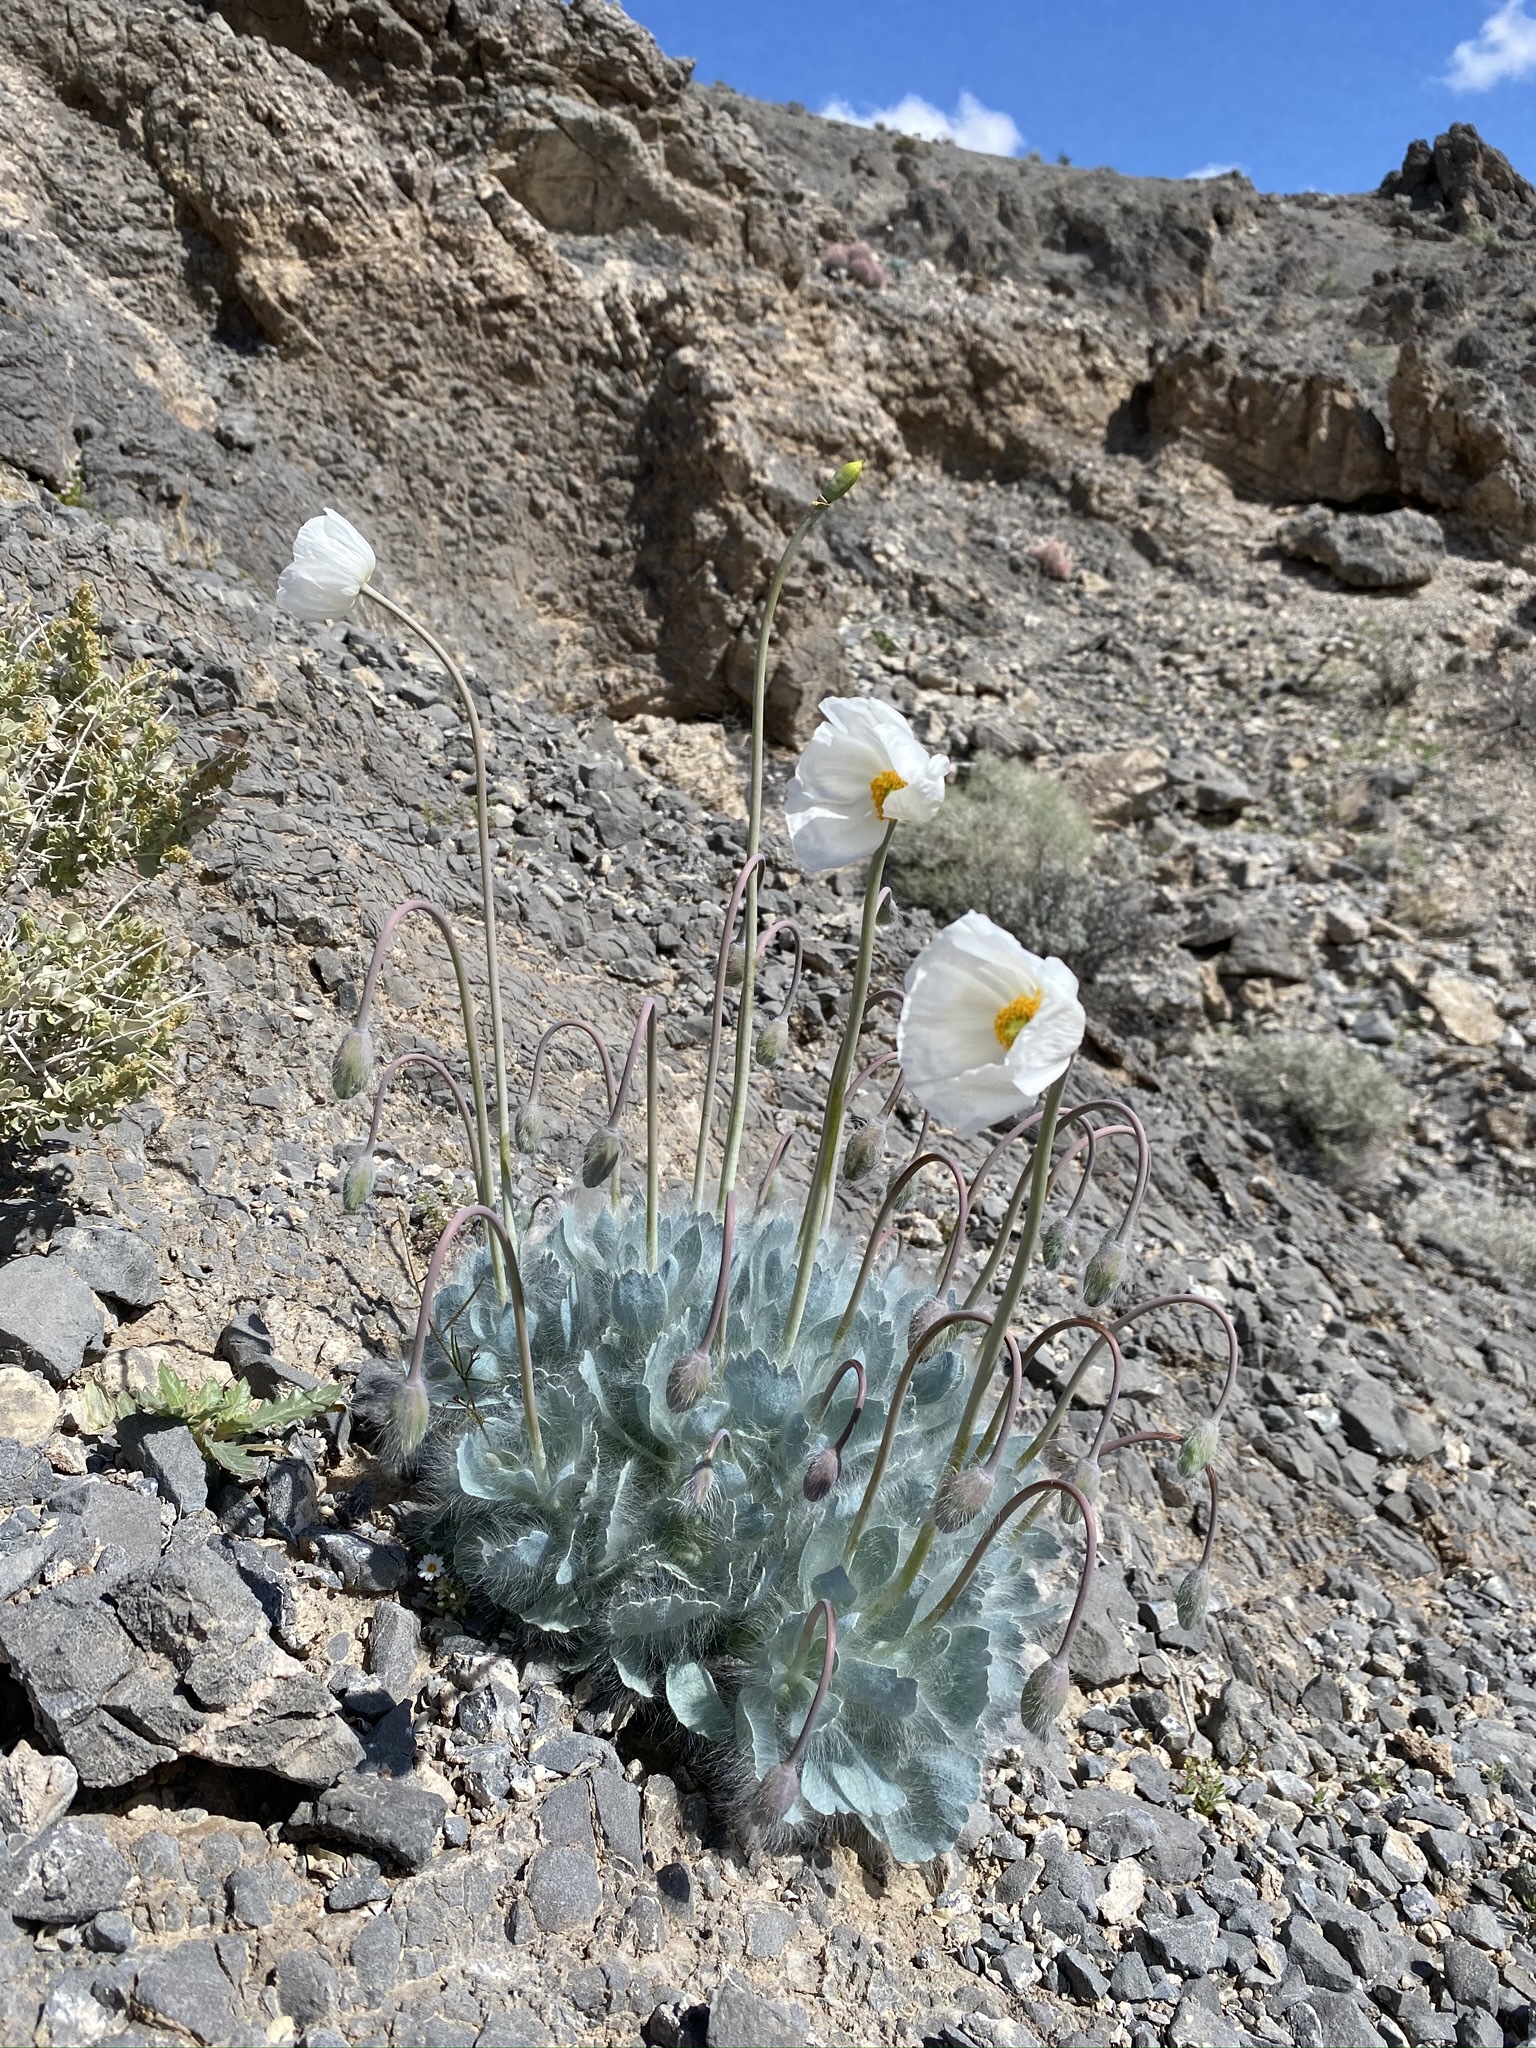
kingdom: Plantae
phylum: Tracheophyta
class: Magnoliopsida
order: Ranunculales
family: Papaveraceae
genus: Arctomecon
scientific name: Arctomecon merriamii
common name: White bear-poppy
